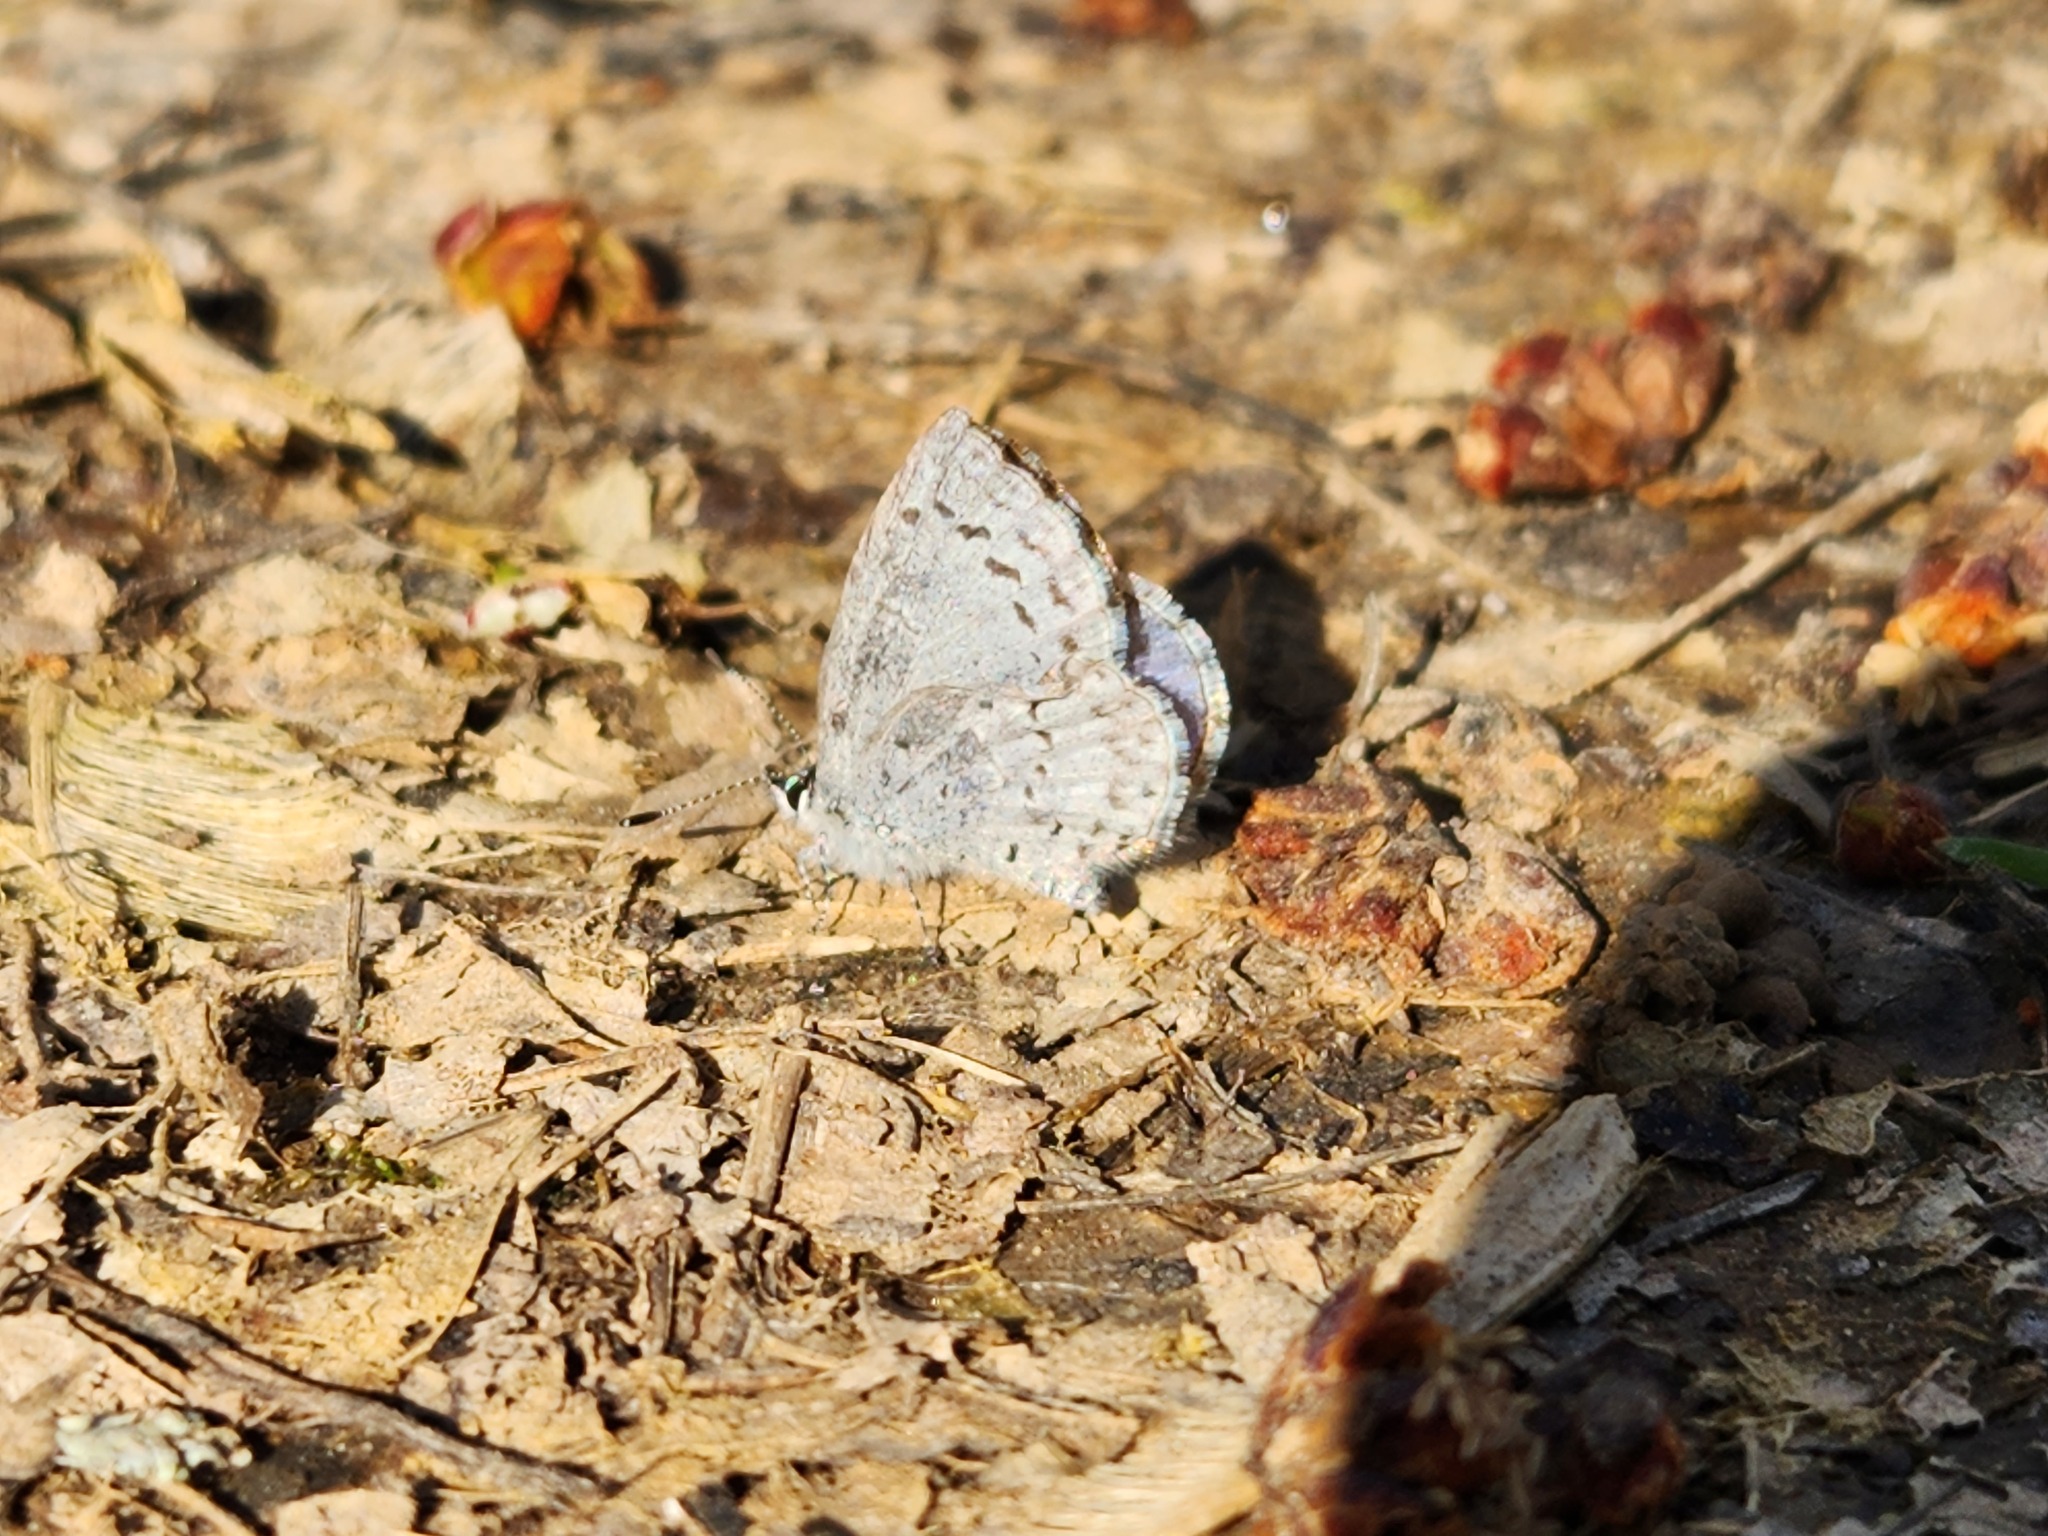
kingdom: Animalia
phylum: Arthropoda
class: Insecta
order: Lepidoptera
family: Lycaenidae
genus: Celastrina
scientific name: Celastrina ladon
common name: Spring azure
